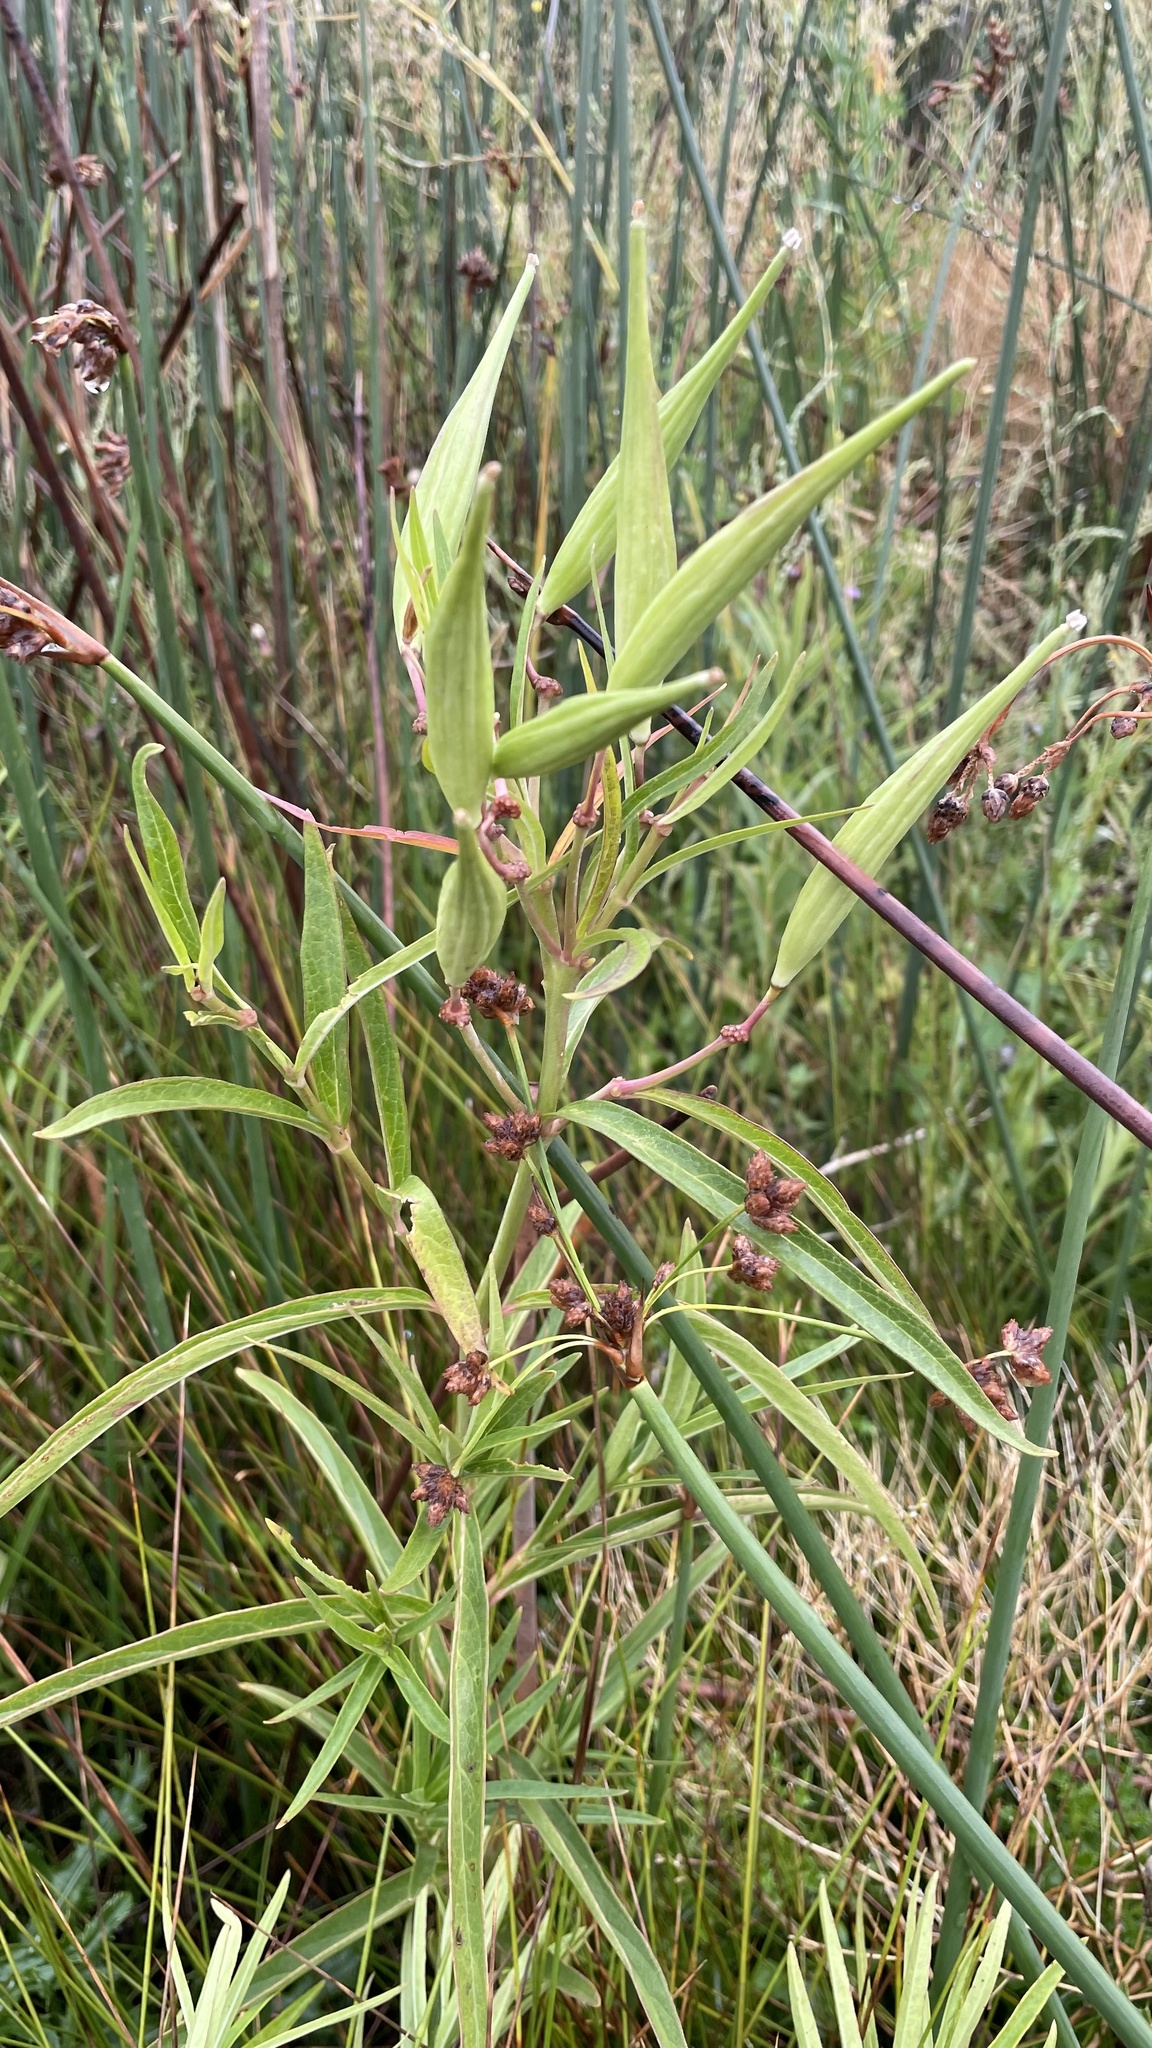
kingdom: Plantae
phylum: Tracheophyta
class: Magnoliopsida
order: Gentianales
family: Apocynaceae
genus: Asclepias
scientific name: Asclepias incarnata
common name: Swamp milkweed
